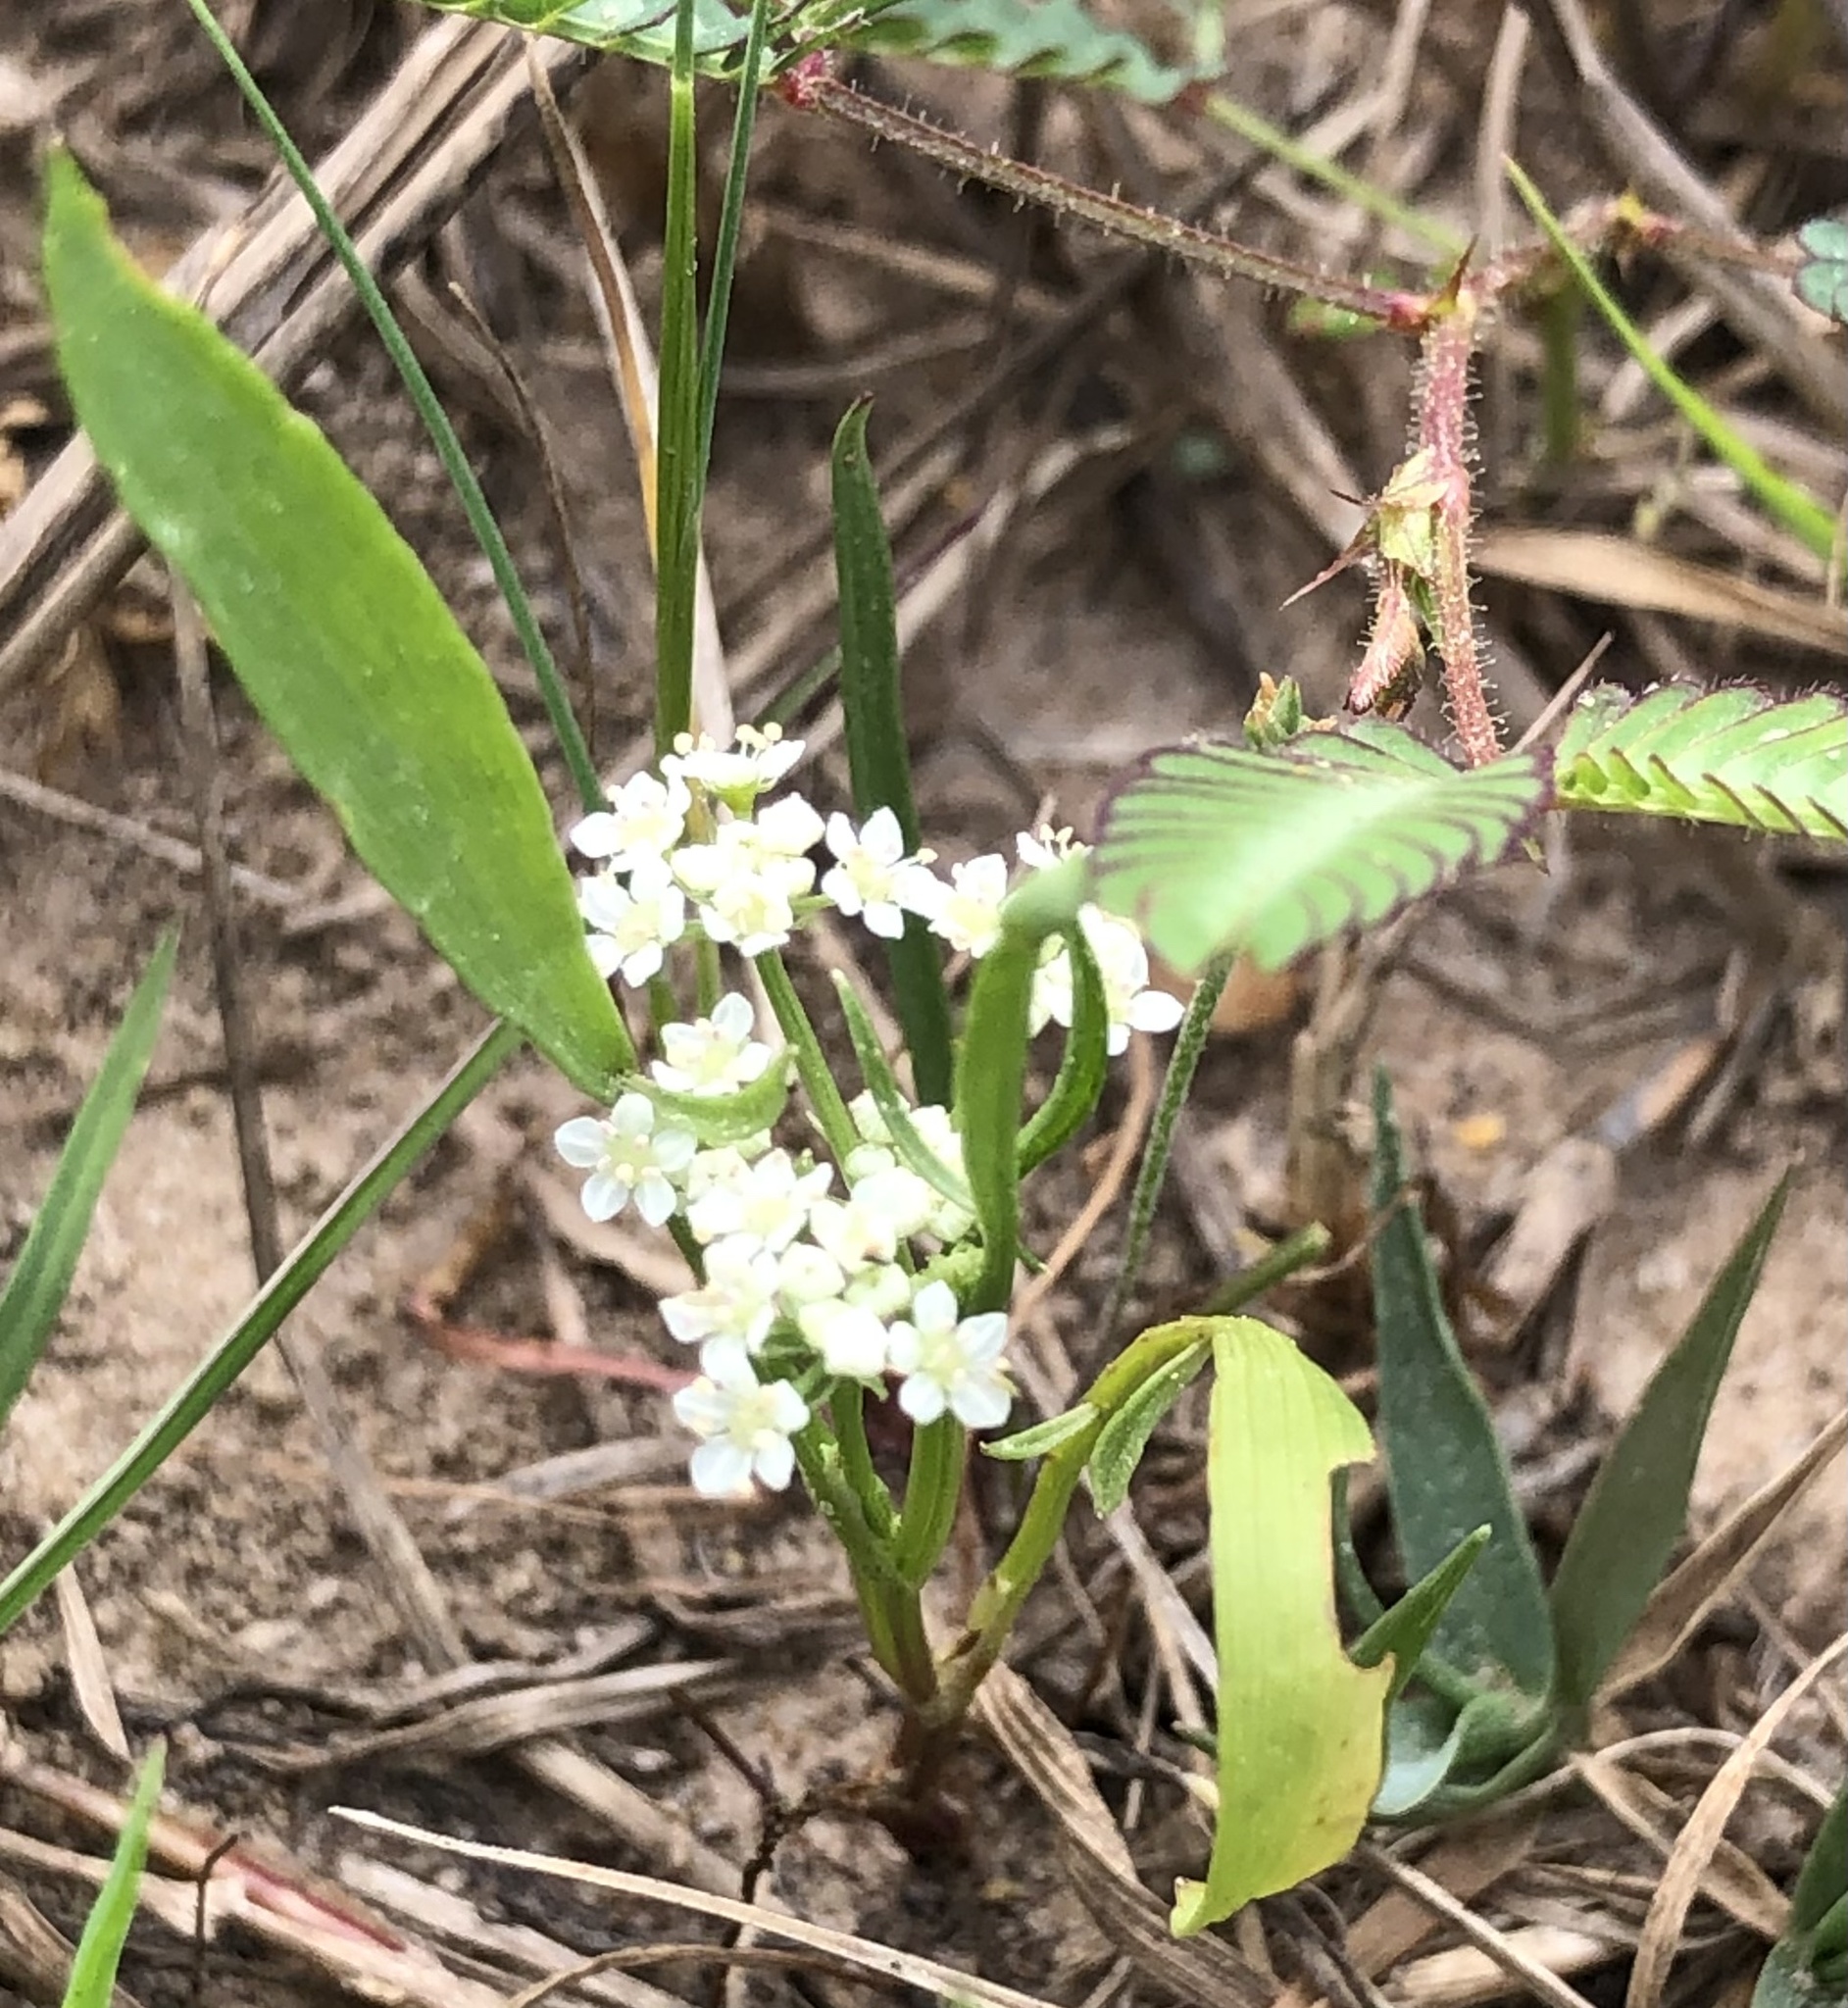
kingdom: Plantae
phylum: Tracheophyta
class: Magnoliopsida
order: Apiales
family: Apiaceae
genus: Limnosciadium
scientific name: Limnosciadium pinnatum
